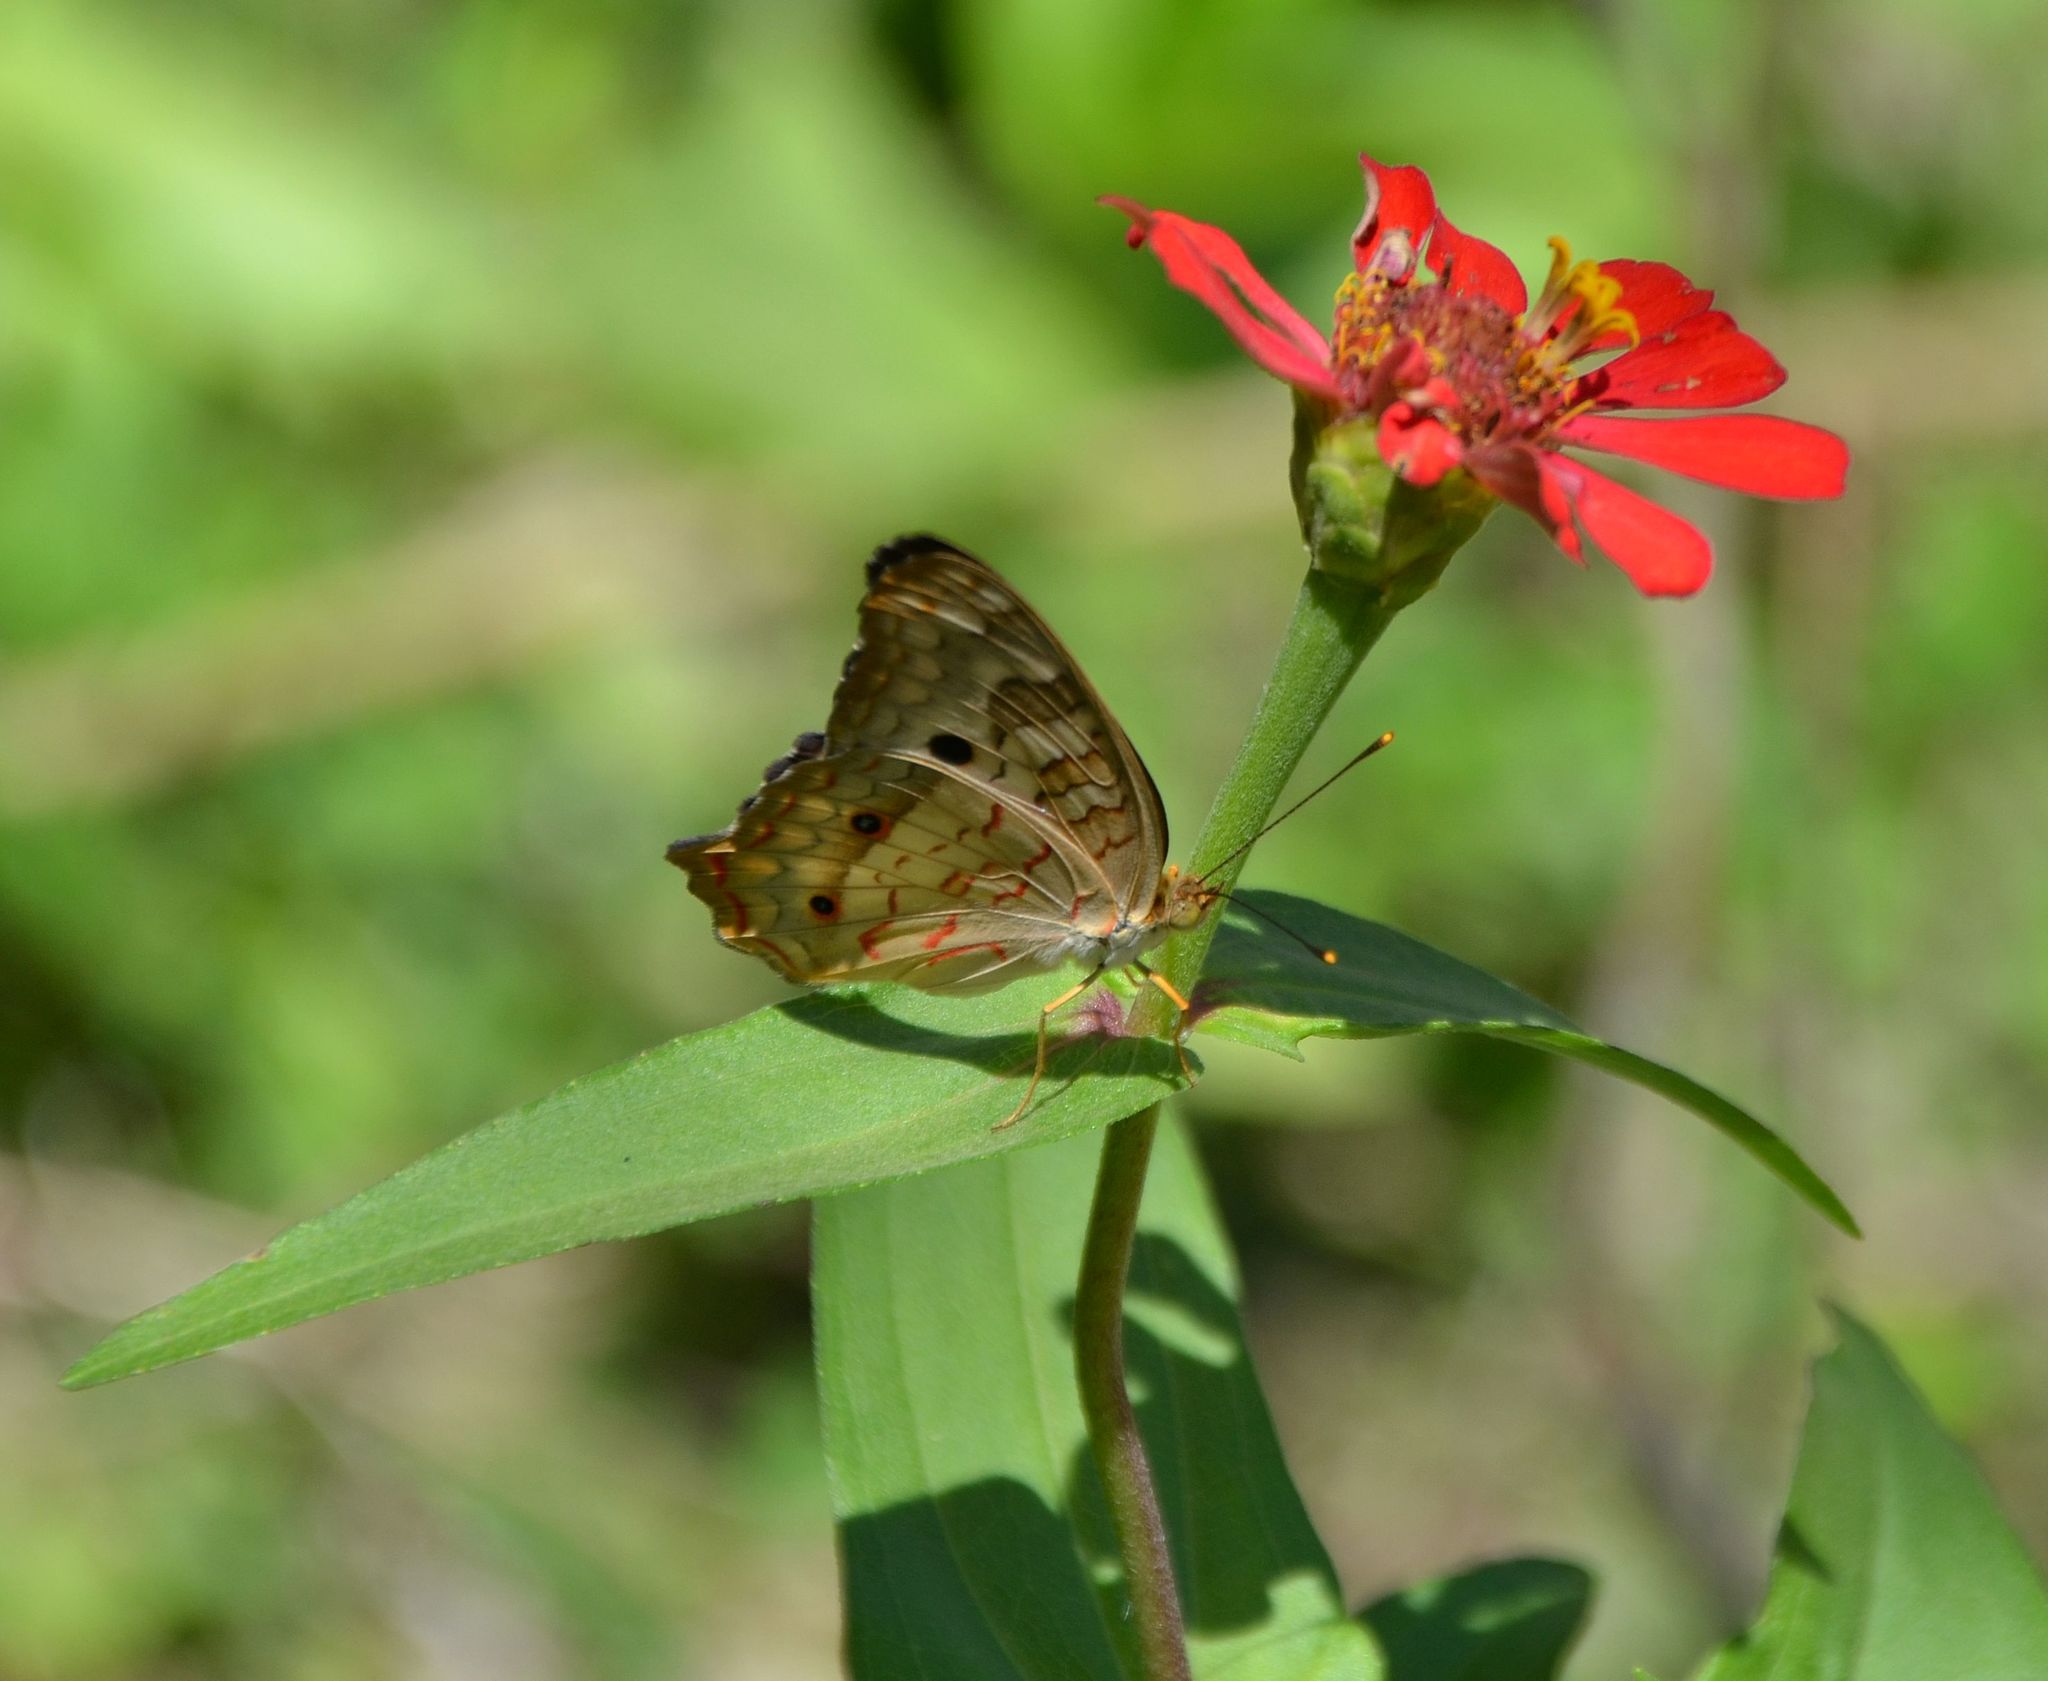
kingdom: Animalia
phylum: Arthropoda
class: Insecta
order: Lepidoptera
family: Nymphalidae
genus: Anartia
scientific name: Anartia jatrophae
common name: White peacock
